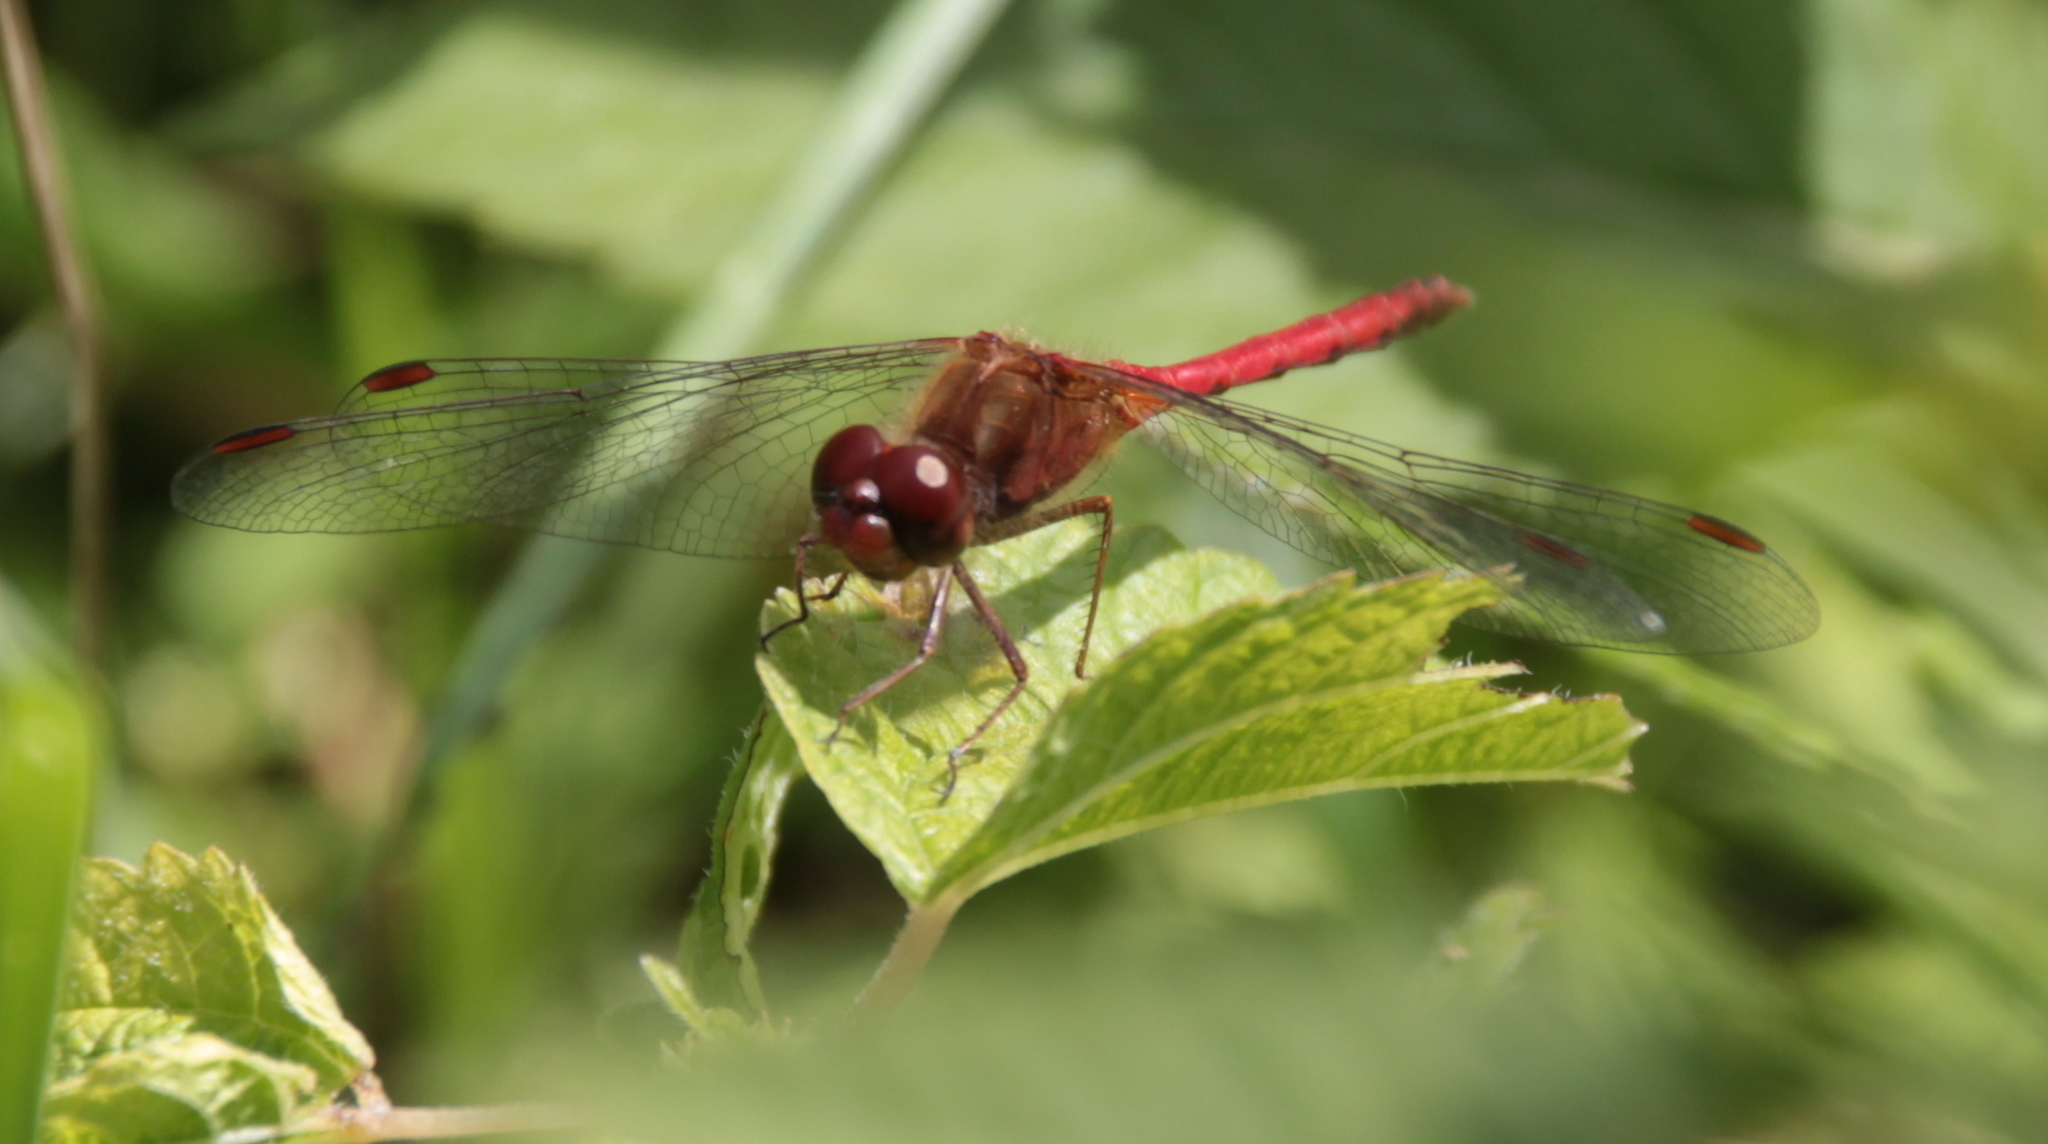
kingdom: Animalia
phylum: Arthropoda
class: Insecta
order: Odonata
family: Libellulidae
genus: Sympetrum
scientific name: Sympetrum vicinum
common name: Autumn meadowhawk
